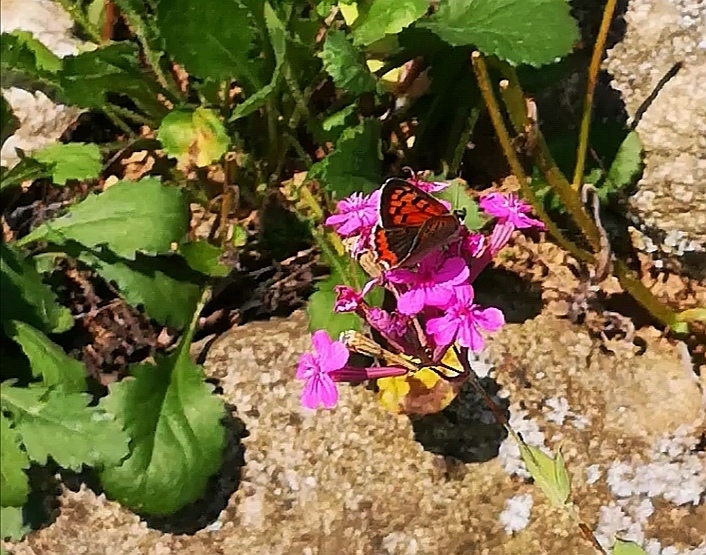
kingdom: Animalia
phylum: Arthropoda
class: Insecta
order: Lepidoptera
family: Lycaenidae
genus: Lycaena
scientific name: Lycaena phlaeas
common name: Small copper
